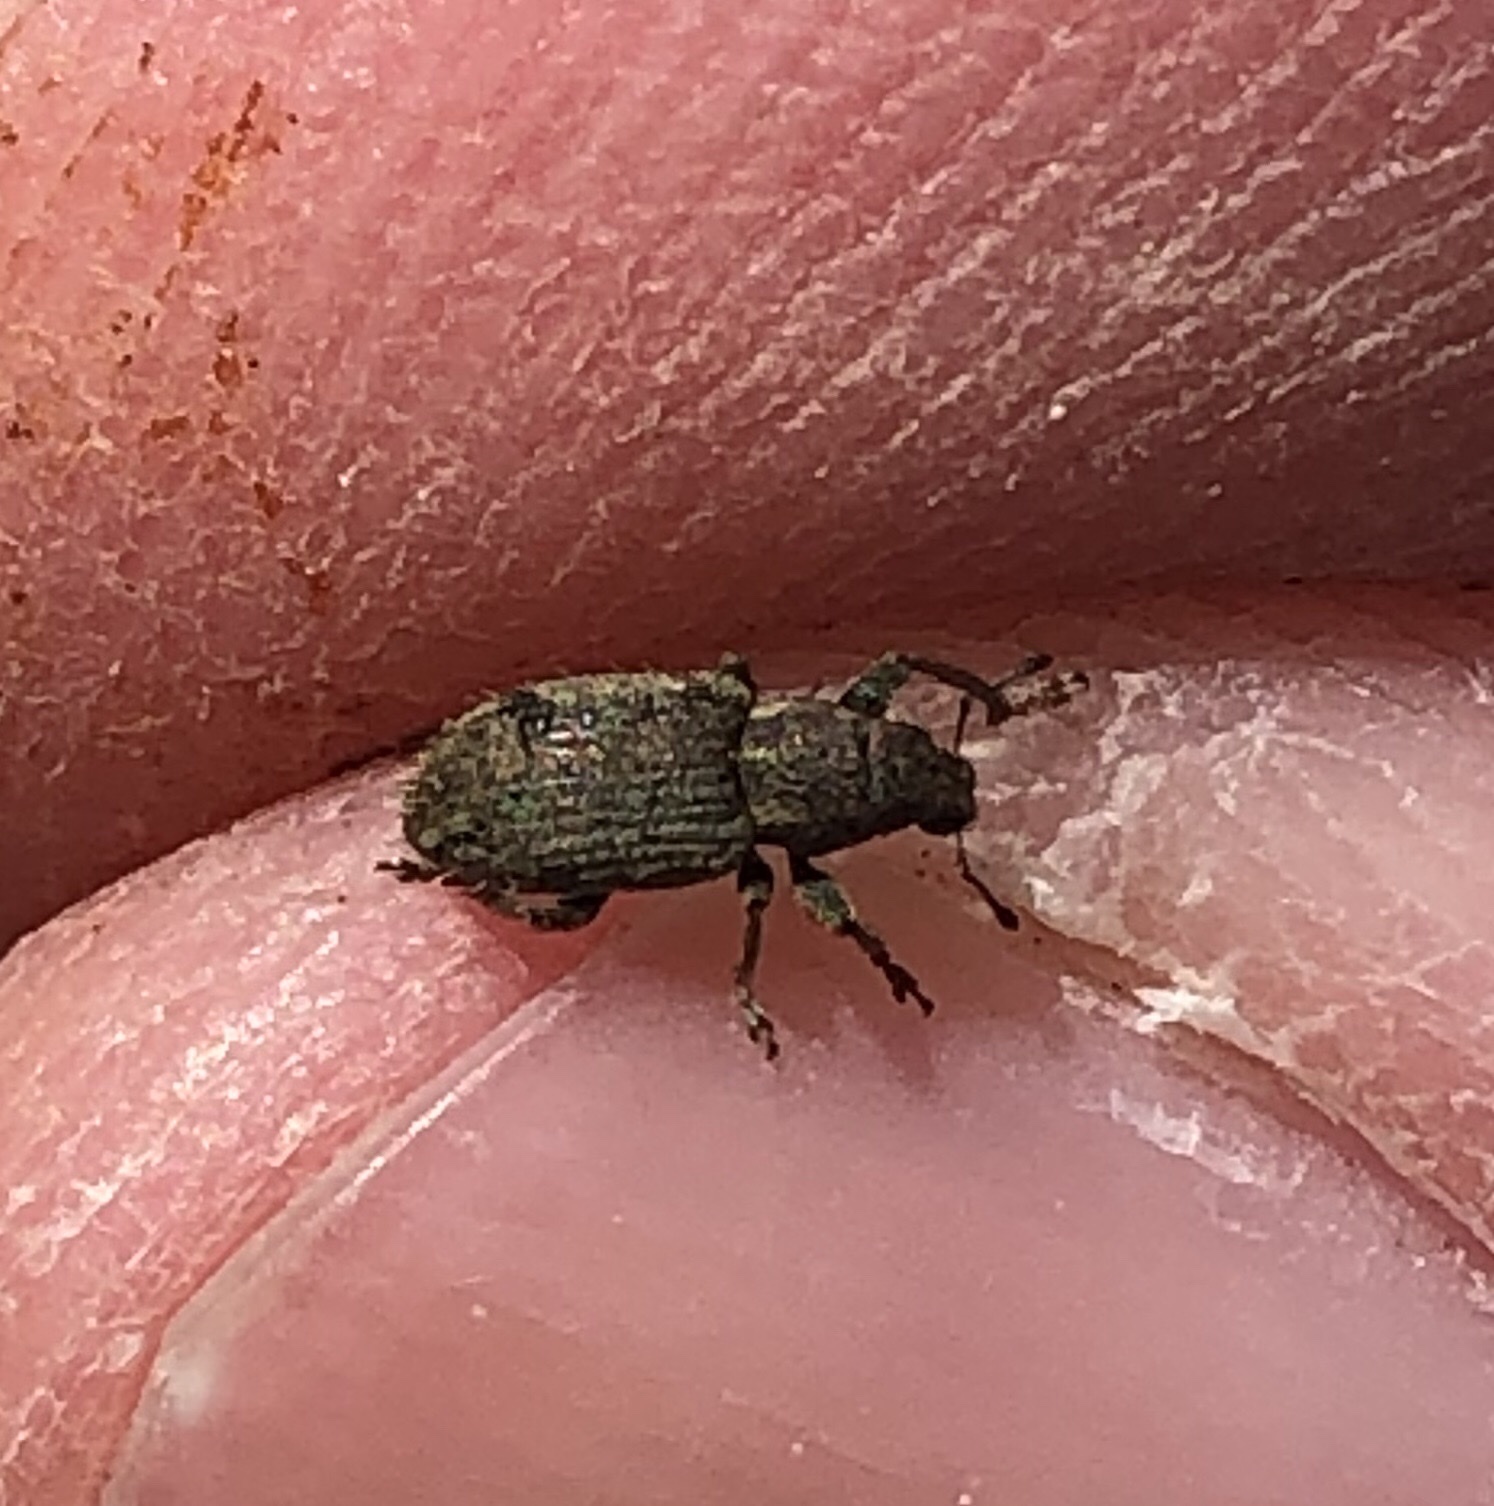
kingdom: Animalia
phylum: Arthropoda
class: Insecta
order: Coleoptera
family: Curculionidae
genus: Sitona
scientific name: Sitona hispidulus
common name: Clover weevil
